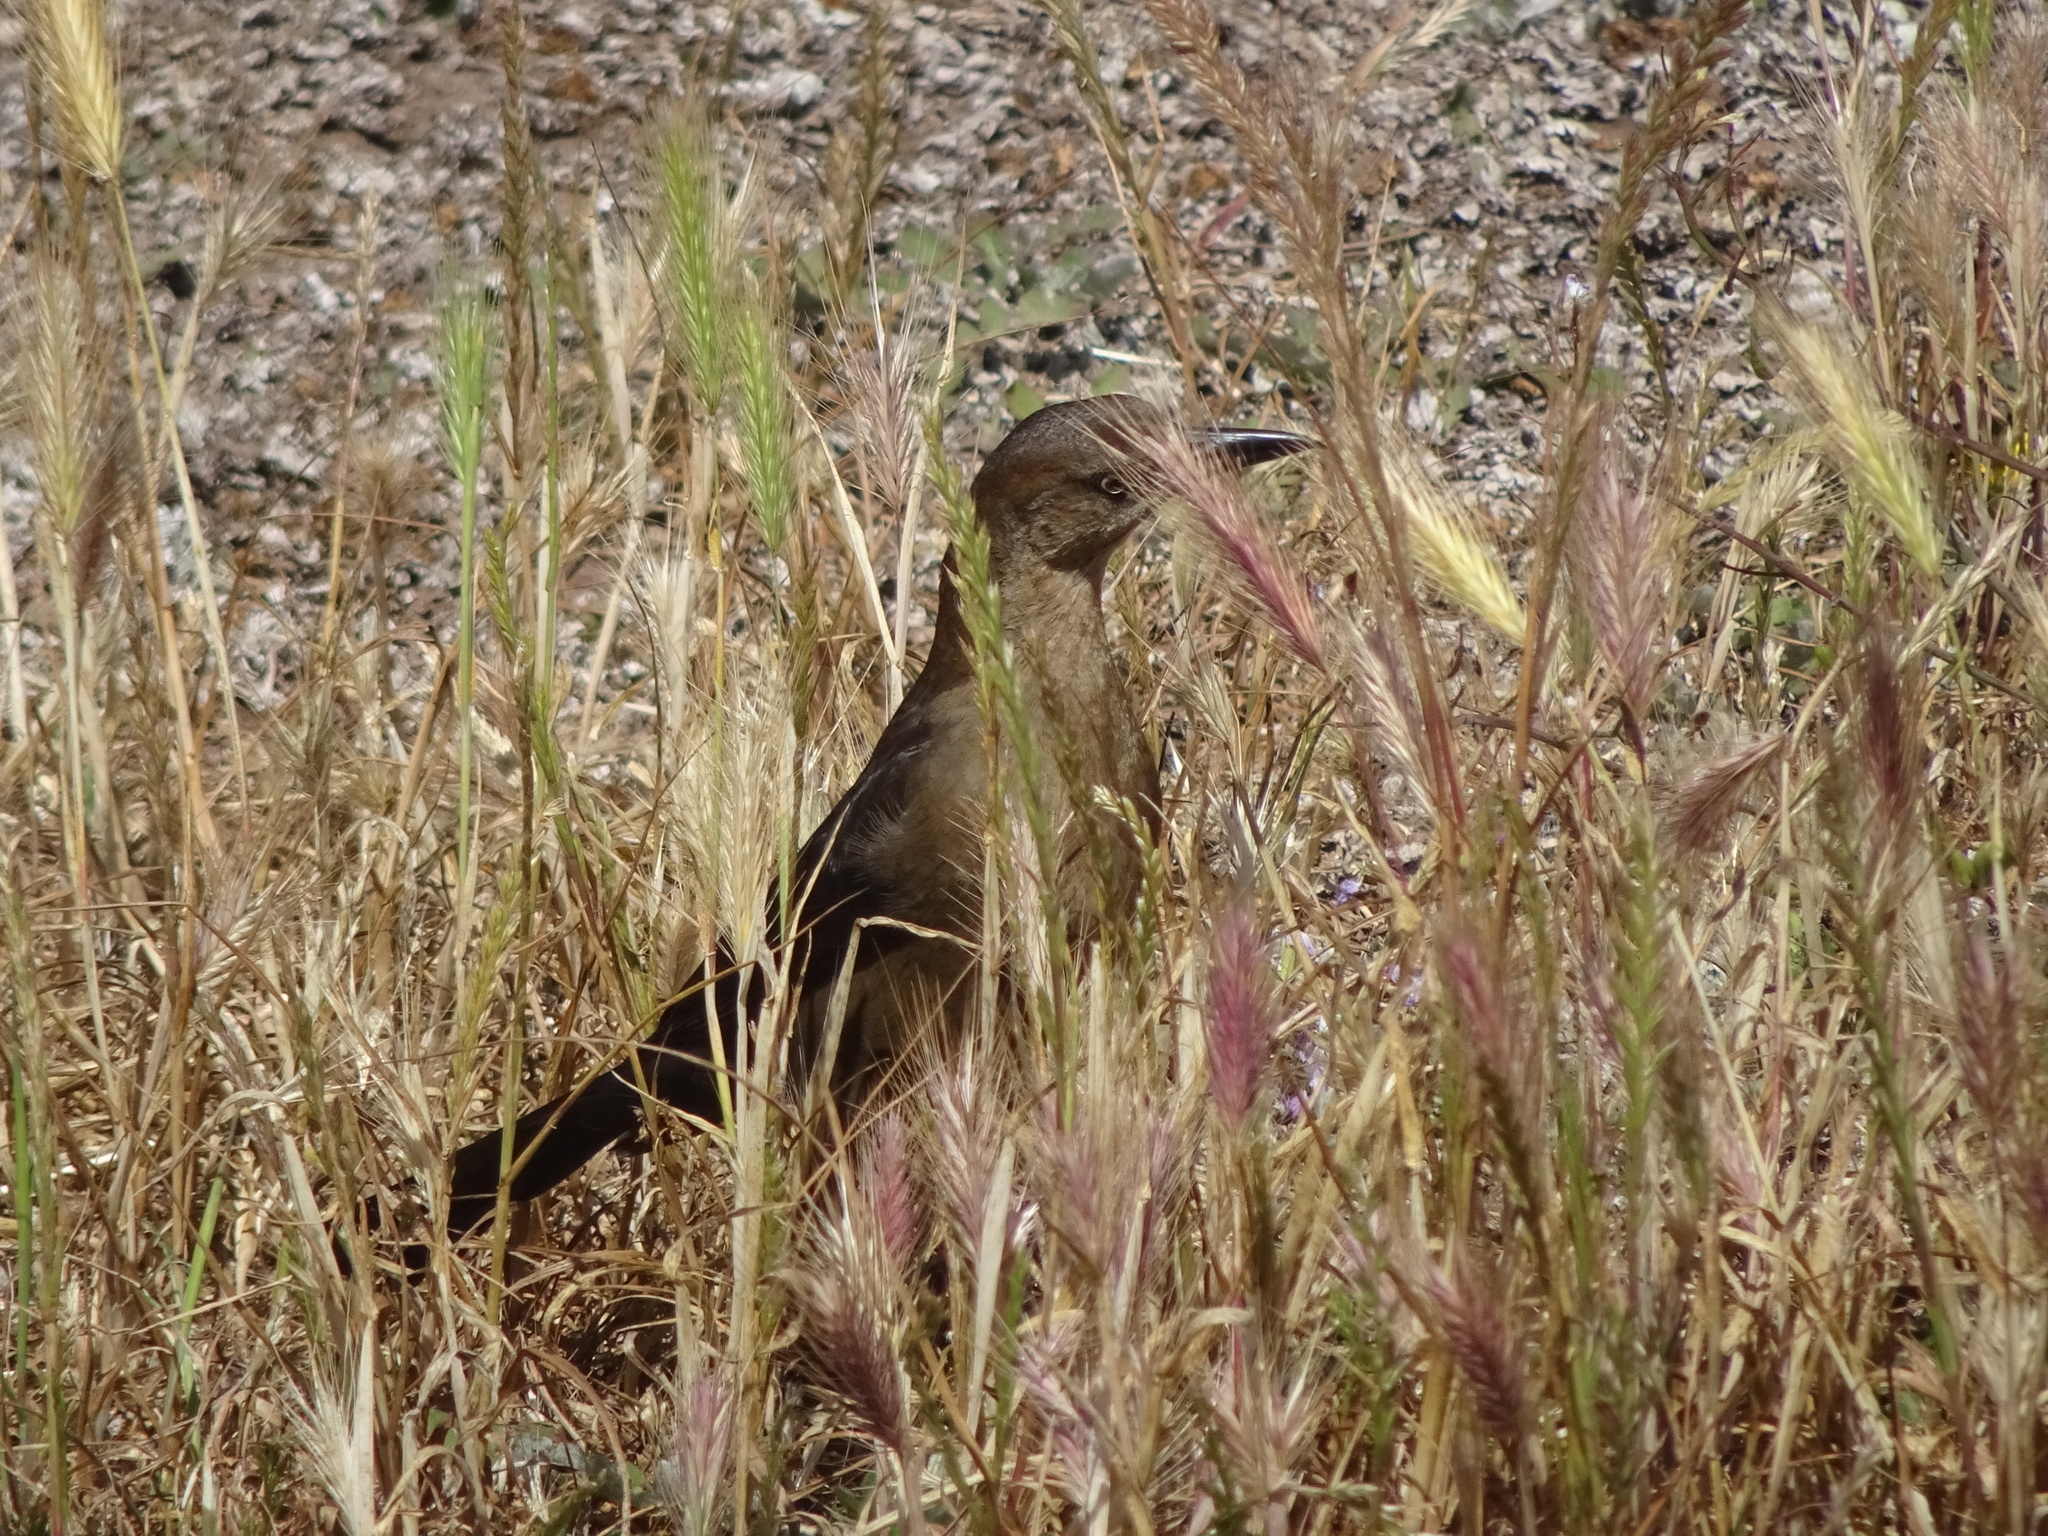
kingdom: Animalia
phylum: Chordata
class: Aves
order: Passeriformes
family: Icteridae
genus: Quiscalus
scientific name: Quiscalus mexicanus
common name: Great-tailed grackle
